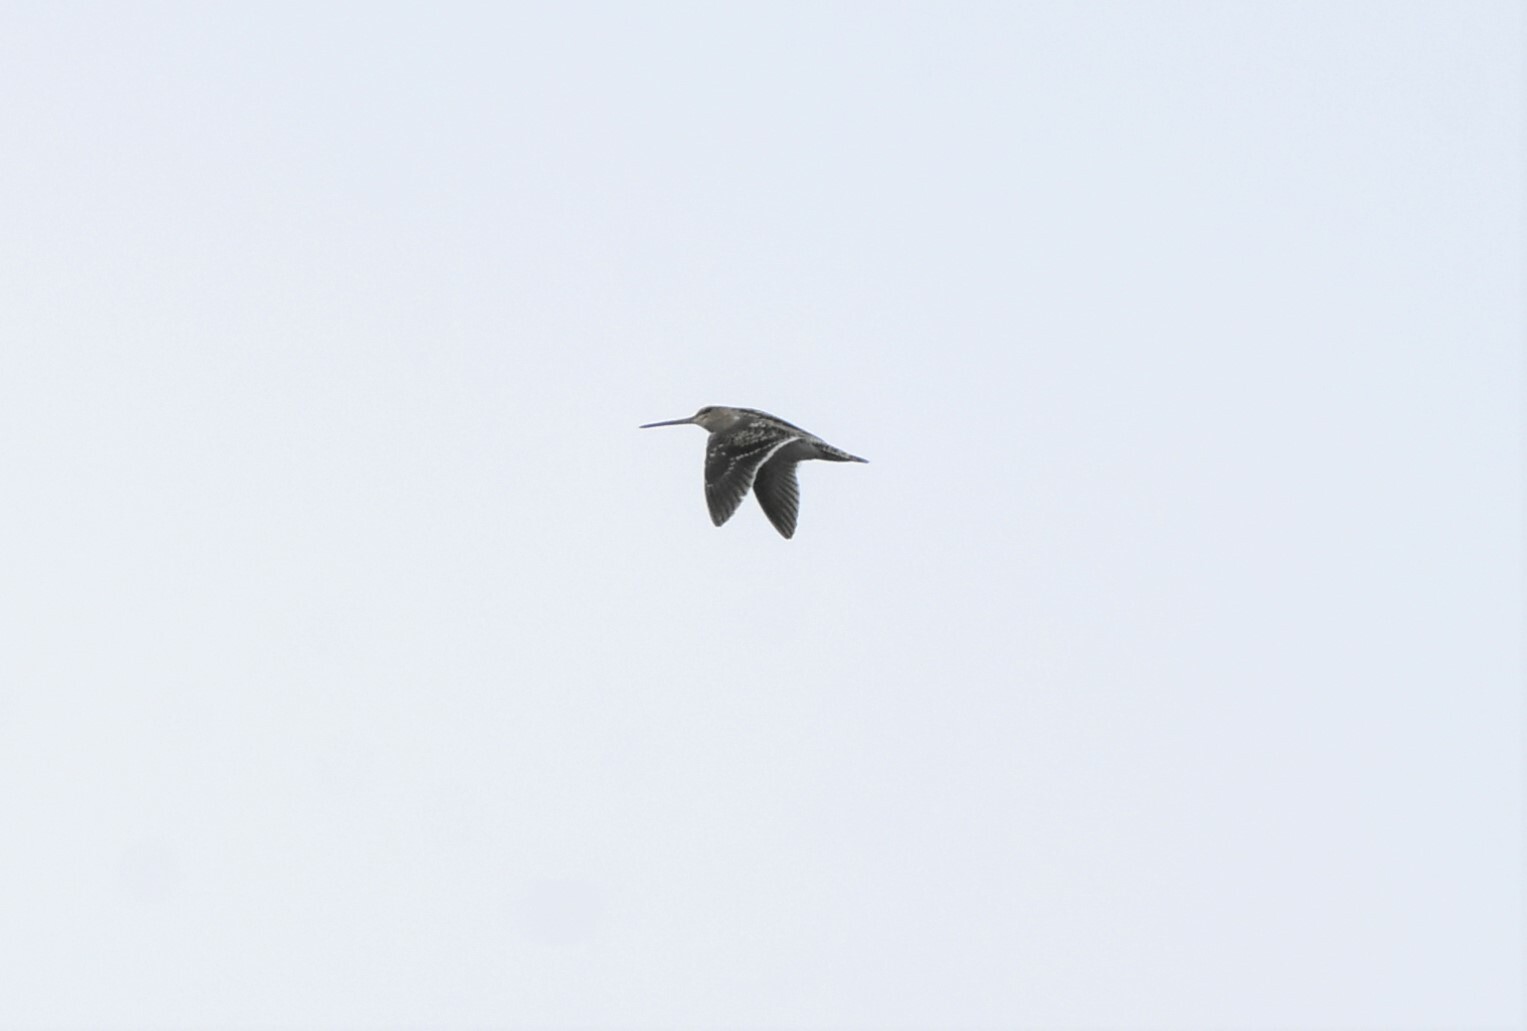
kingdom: Animalia
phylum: Chordata
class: Aves
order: Charadriiformes
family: Scolopacidae
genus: Gallinago
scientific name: Gallinago gallinago
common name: Common snipe
